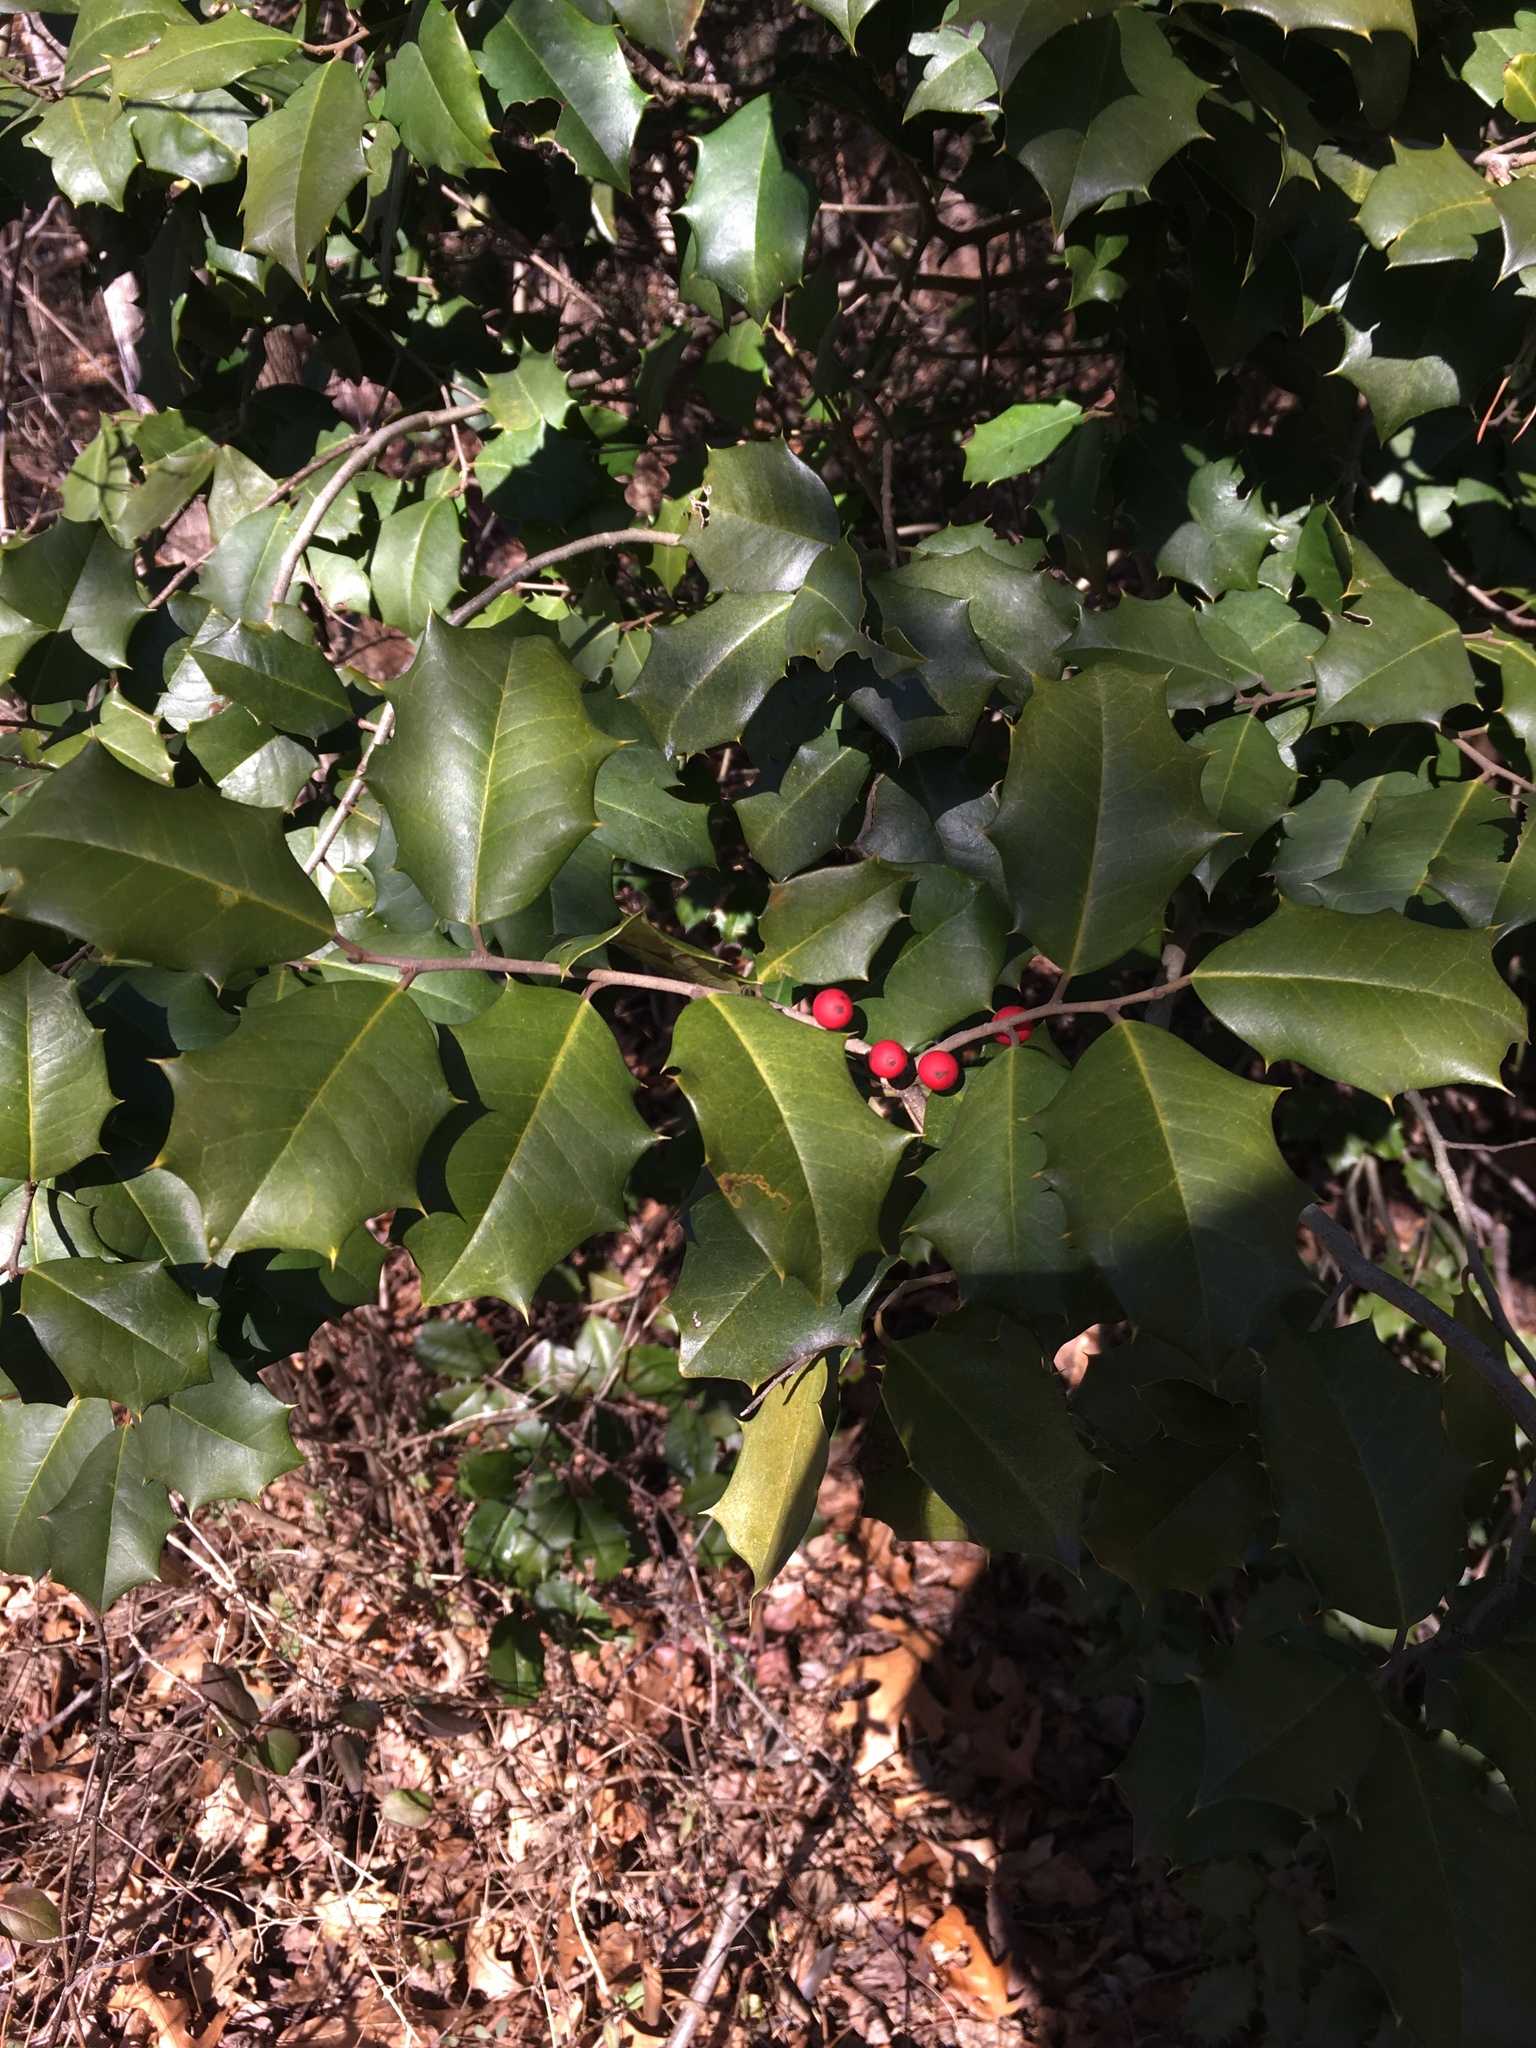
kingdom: Plantae
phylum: Tracheophyta
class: Magnoliopsida
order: Aquifoliales
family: Aquifoliaceae
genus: Ilex
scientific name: Ilex opaca
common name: American holly
